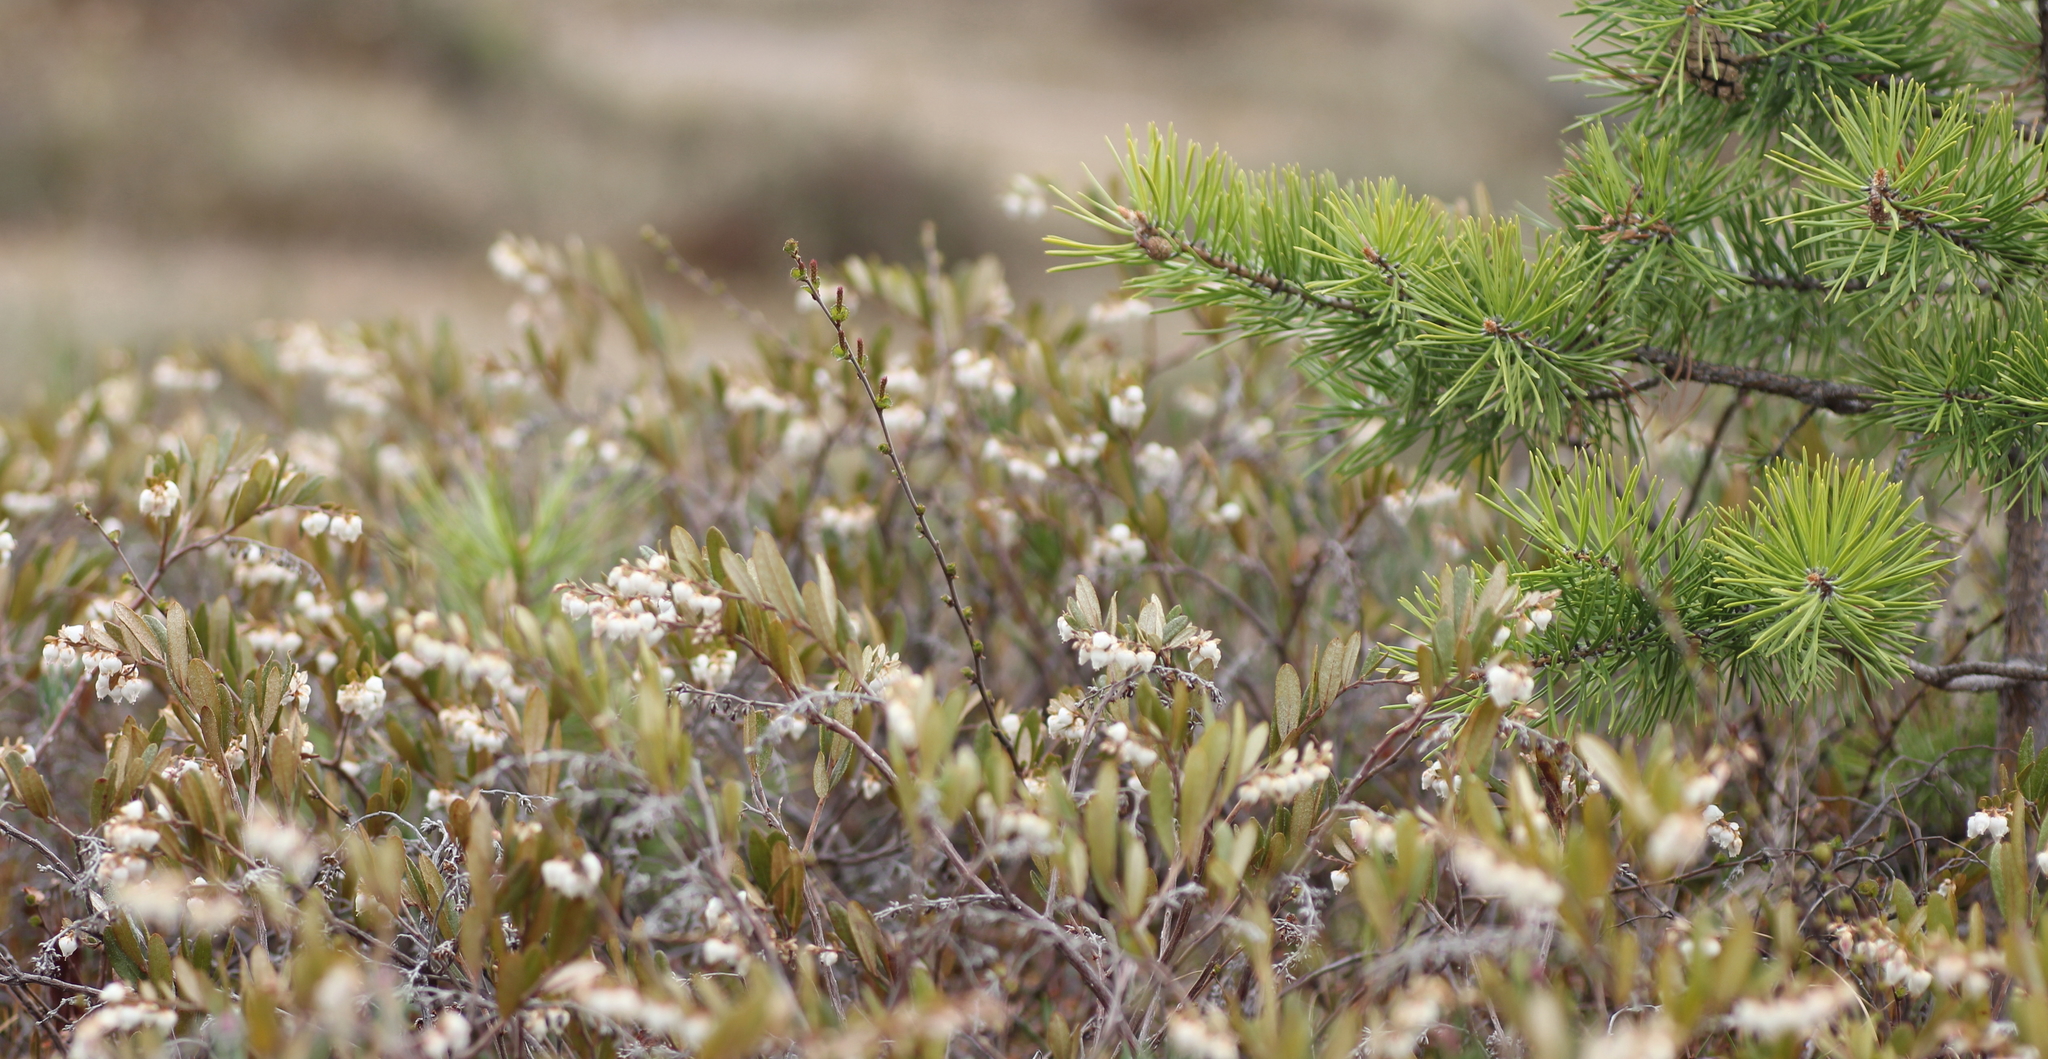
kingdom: Plantae
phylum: Tracheophyta
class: Magnoliopsida
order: Ericales
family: Ericaceae
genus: Chamaedaphne
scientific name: Chamaedaphne calyculata
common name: Leatherleaf
